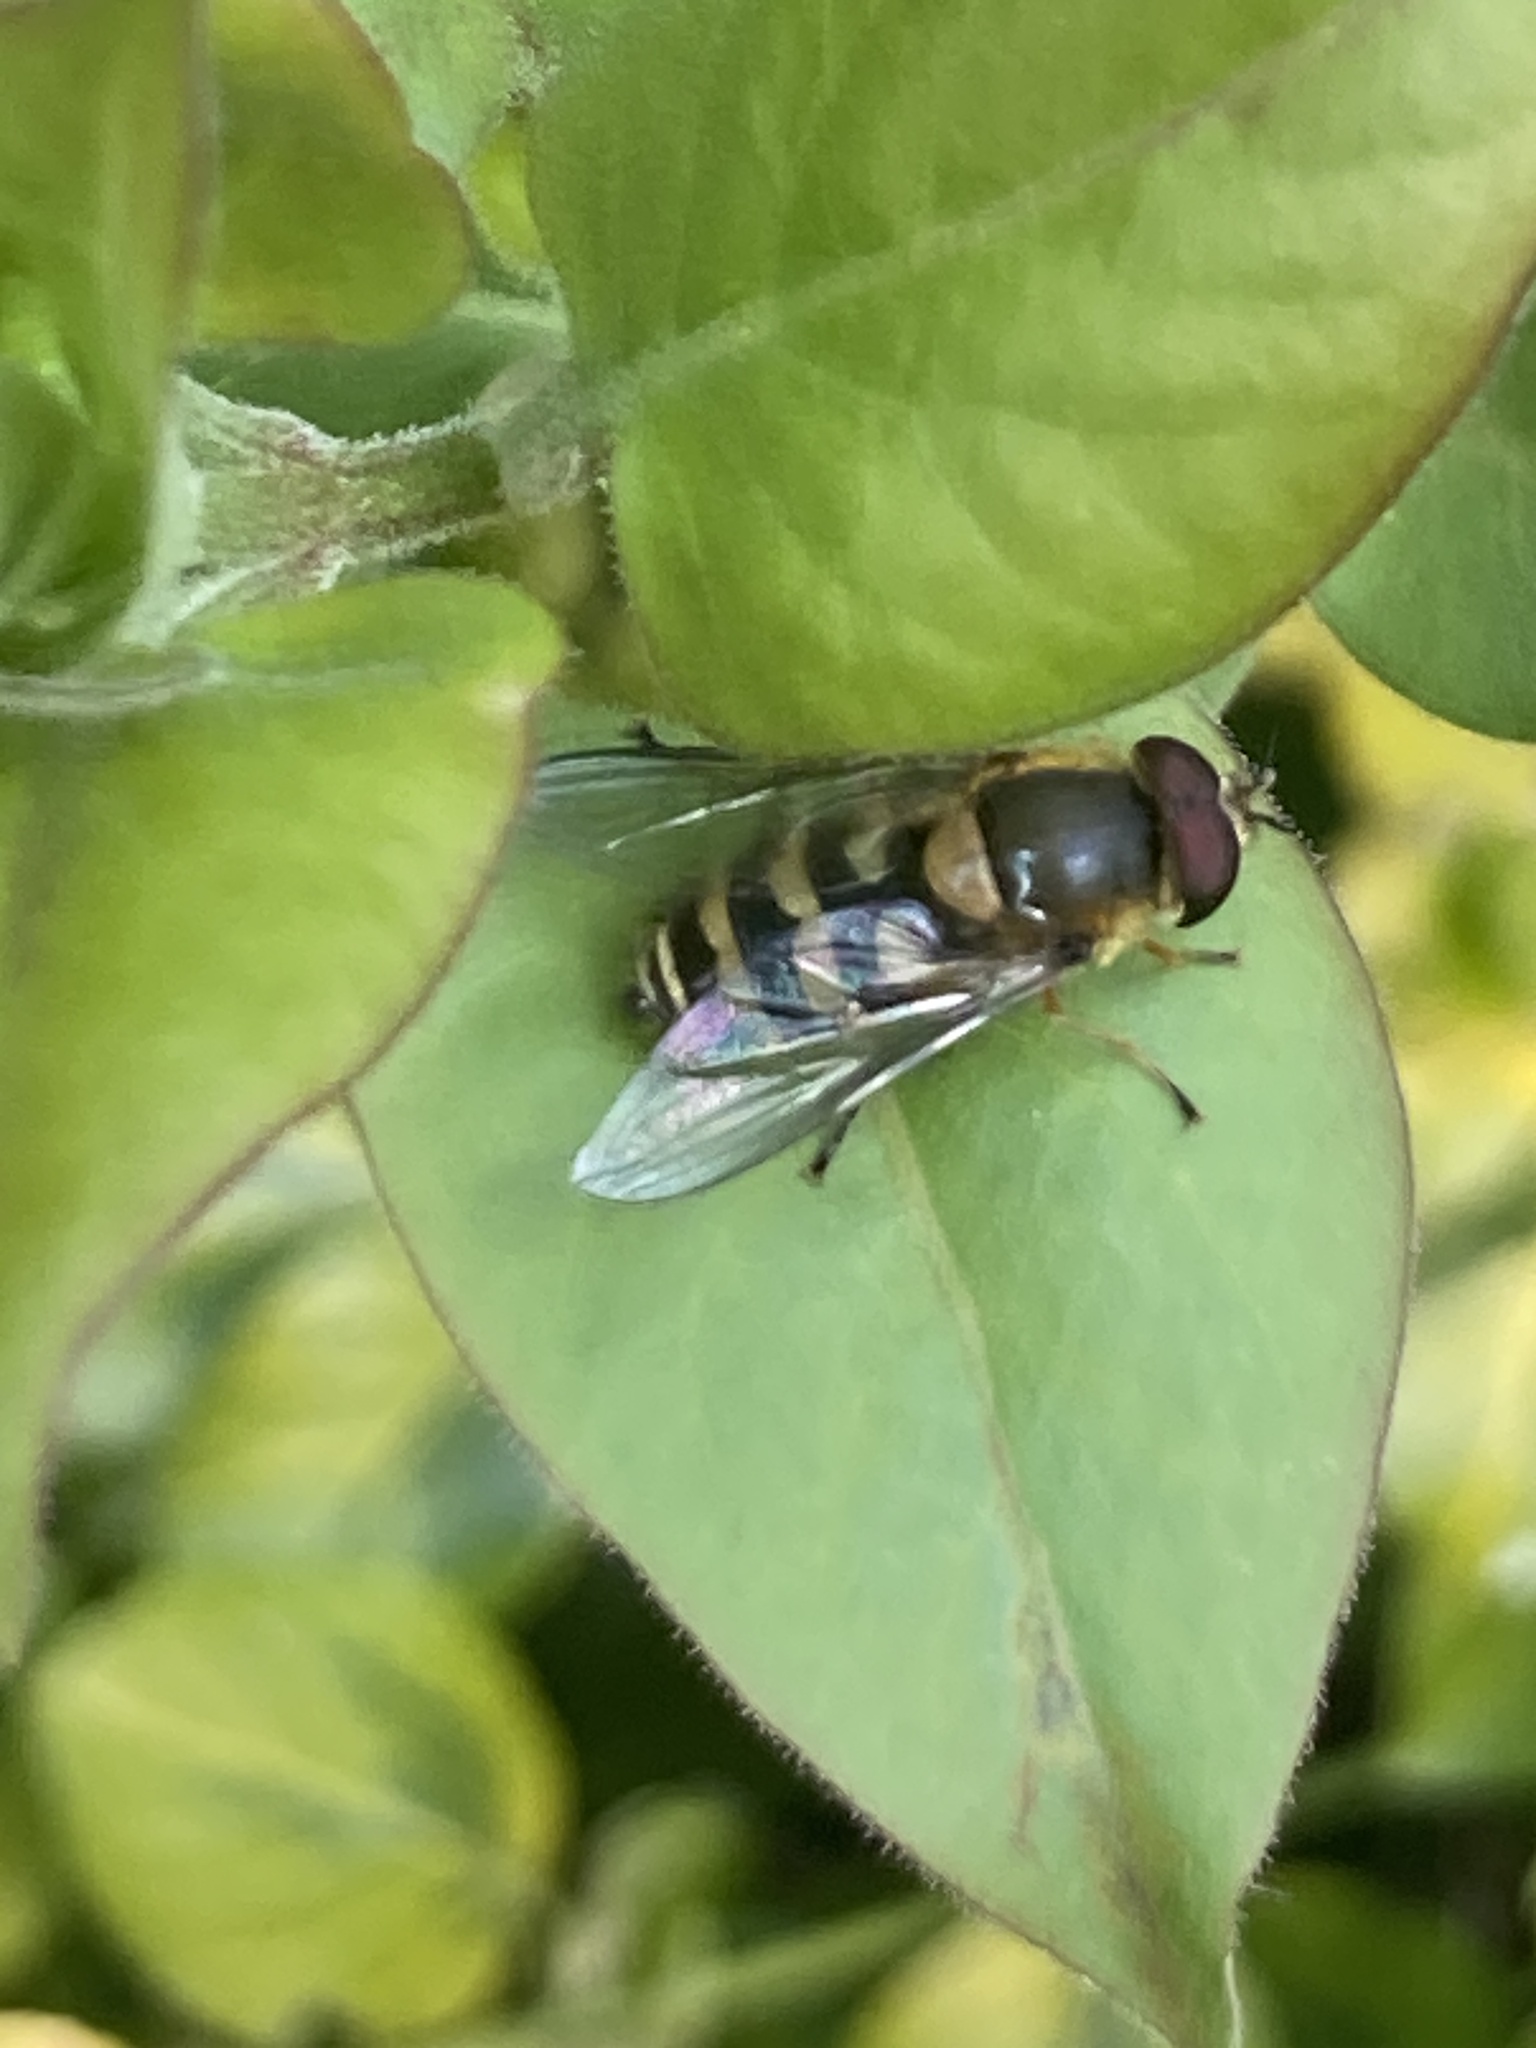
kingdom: Animalia
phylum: Arthropoda
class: Insecta
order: Diptera
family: Syrphidae
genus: Syrphus
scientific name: Syrphus
